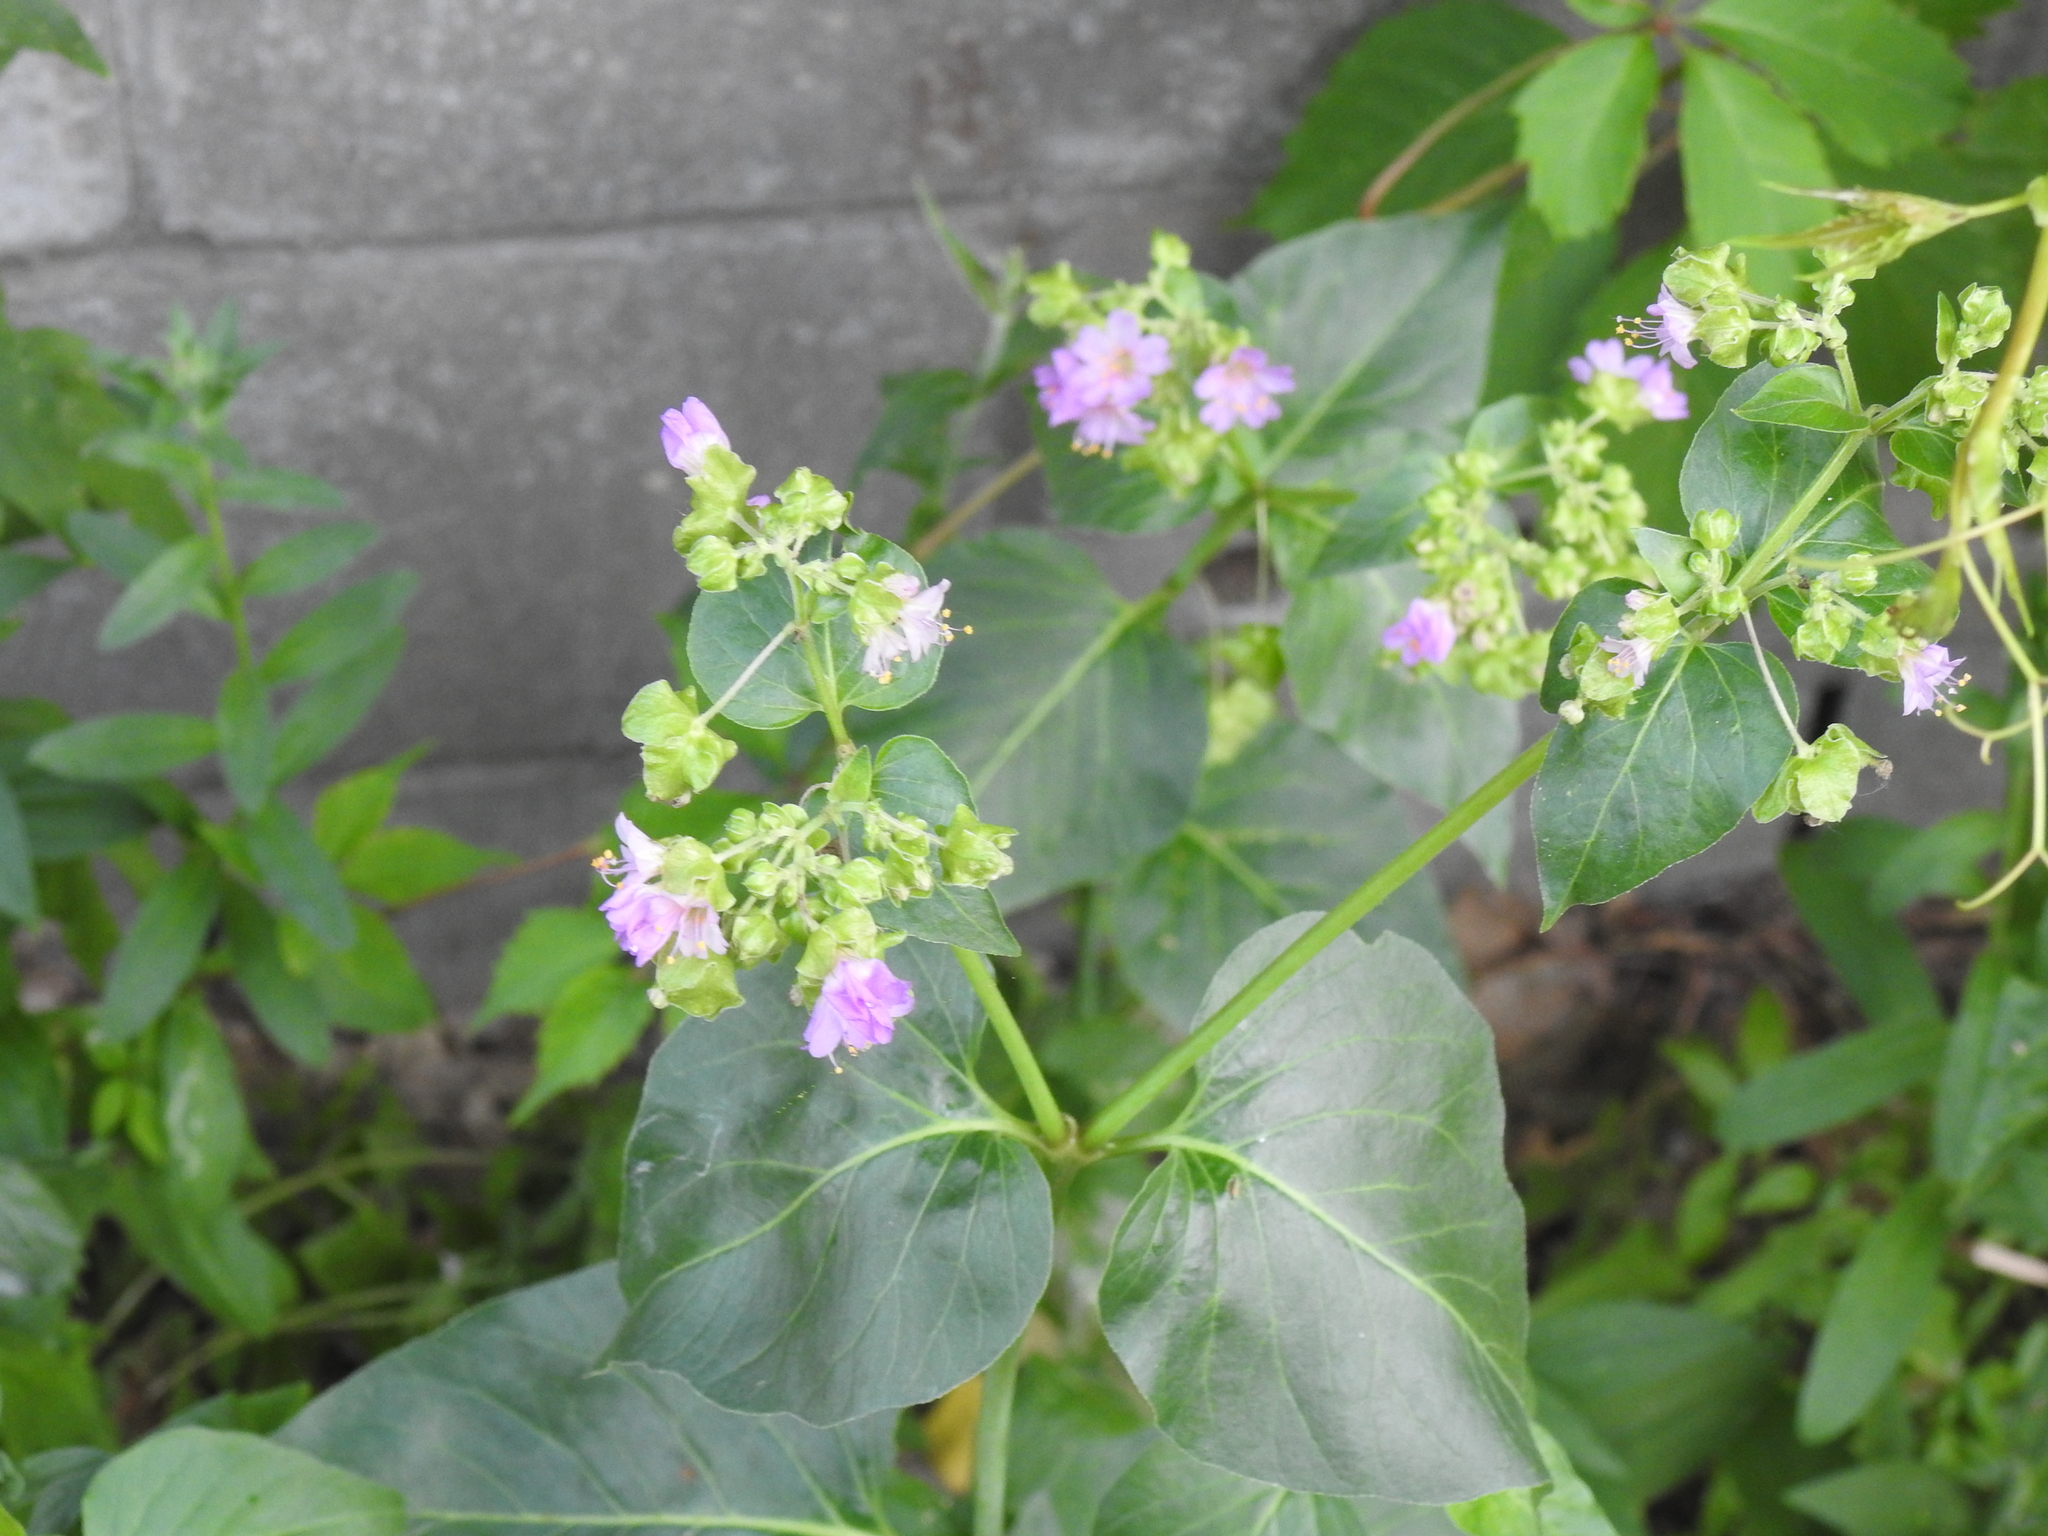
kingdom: Plantae
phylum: Tracheophyta
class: Magnoliopsida
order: Caryophyllales
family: Nyctaginaceae
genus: Mirabilis
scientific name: Mirabilis nyctaginea
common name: Umbrella wort
